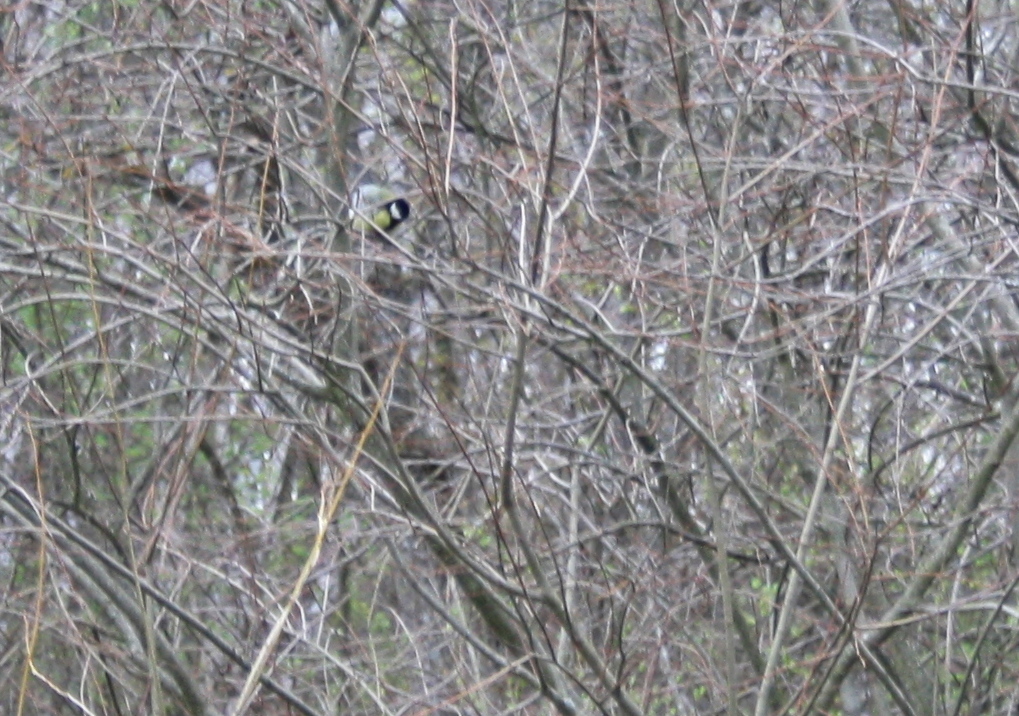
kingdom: Animalia
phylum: Chordata
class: Aves
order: Passeriformes
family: Paridae
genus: Parus
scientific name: Parus major
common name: Great tit
